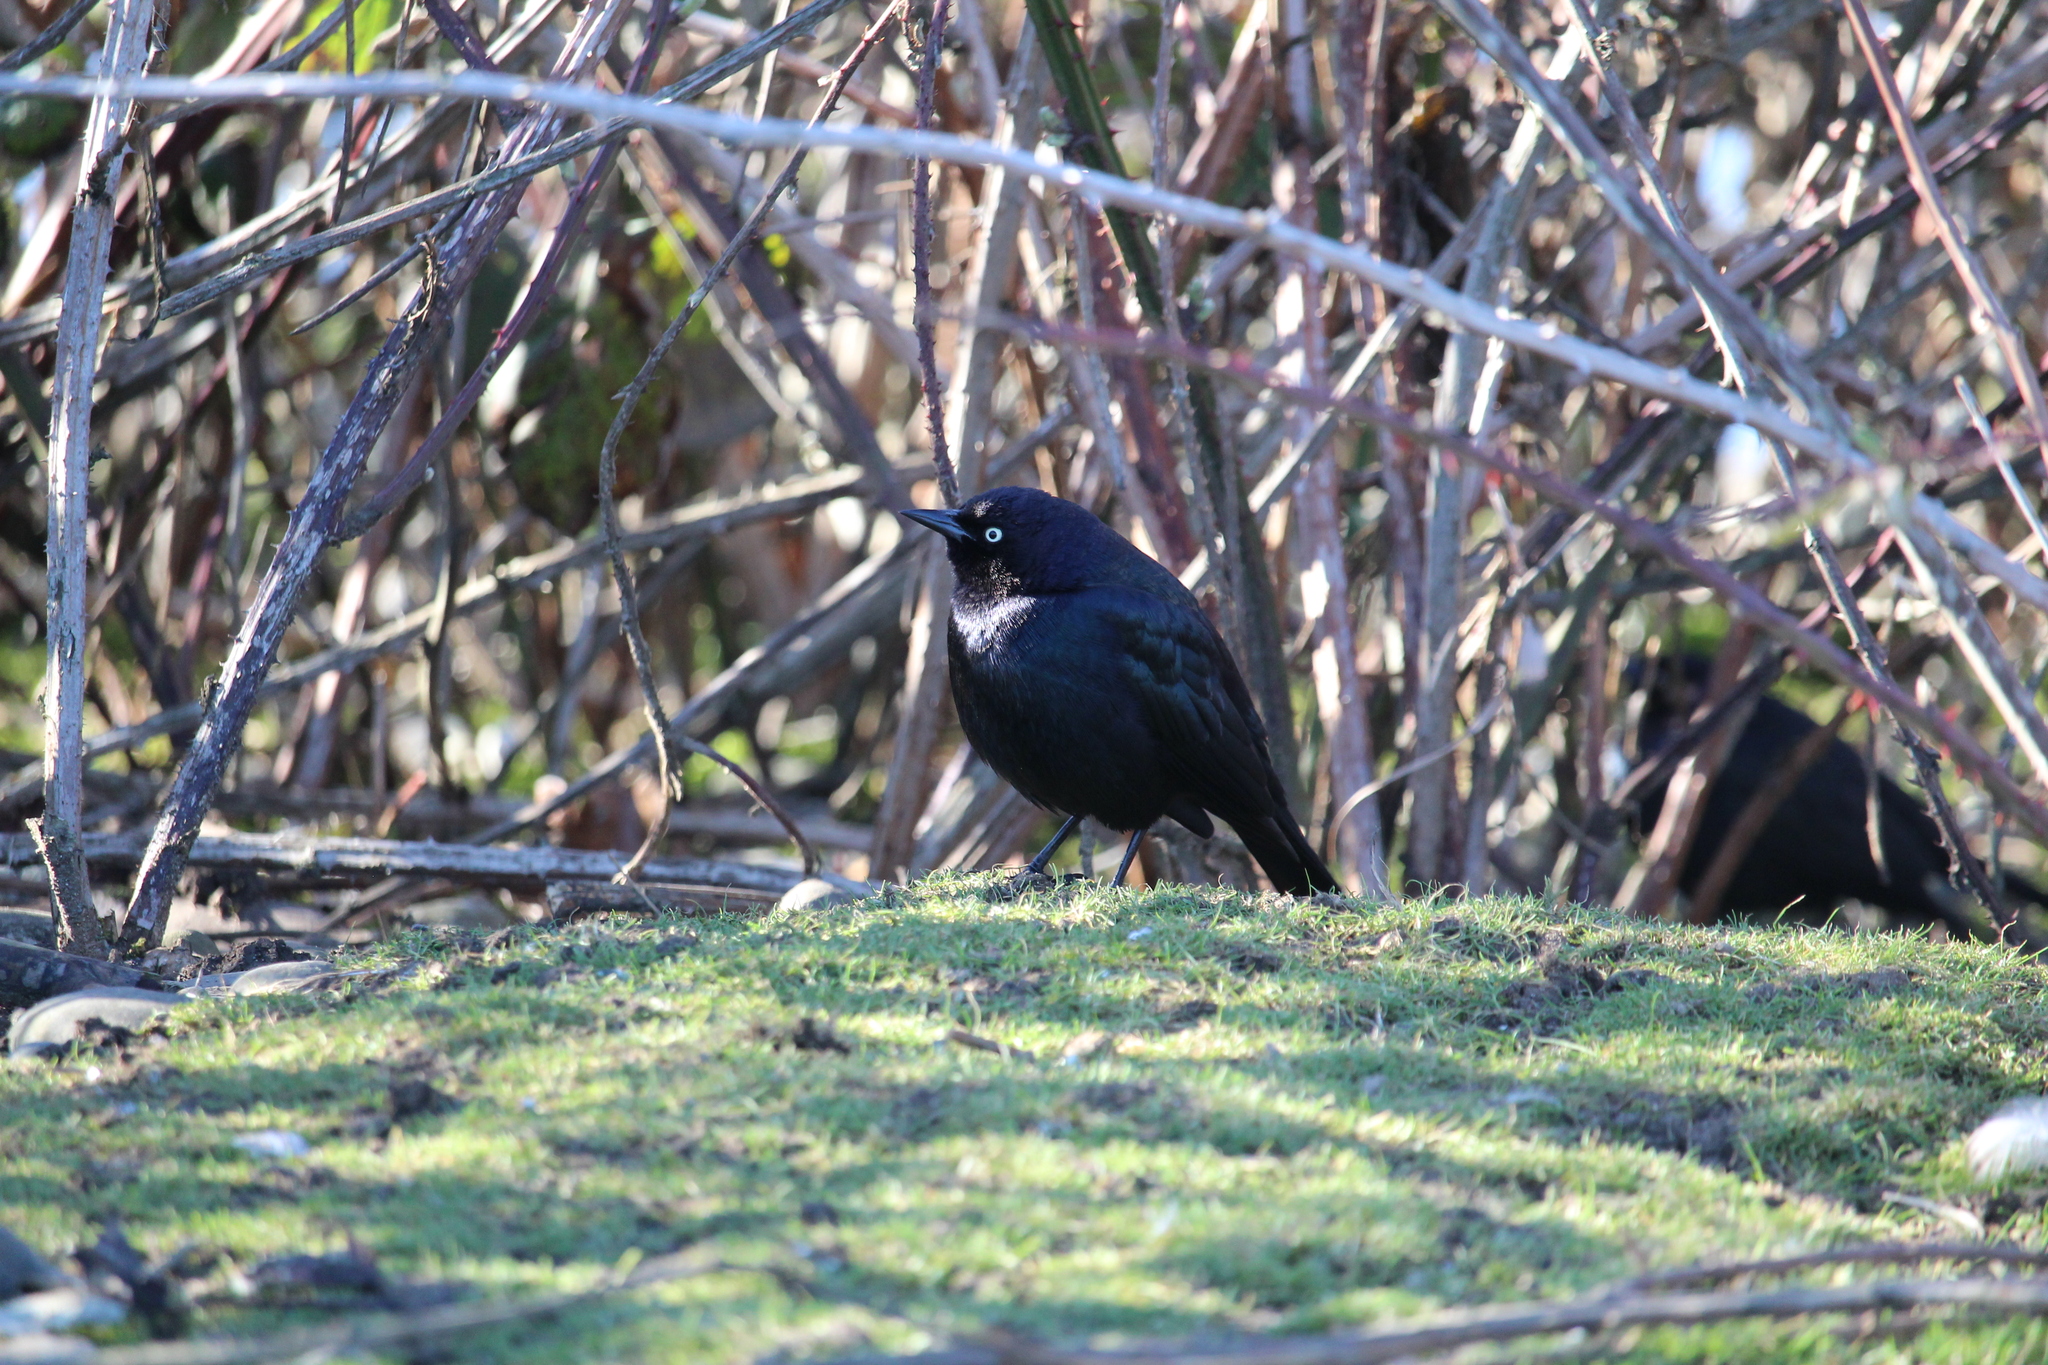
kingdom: Animalia
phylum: Chordata
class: Aves
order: Passeriformes
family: Icteridae
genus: Euphagus
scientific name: Euphagus cyanocephalus
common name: Brewer's blackbird
